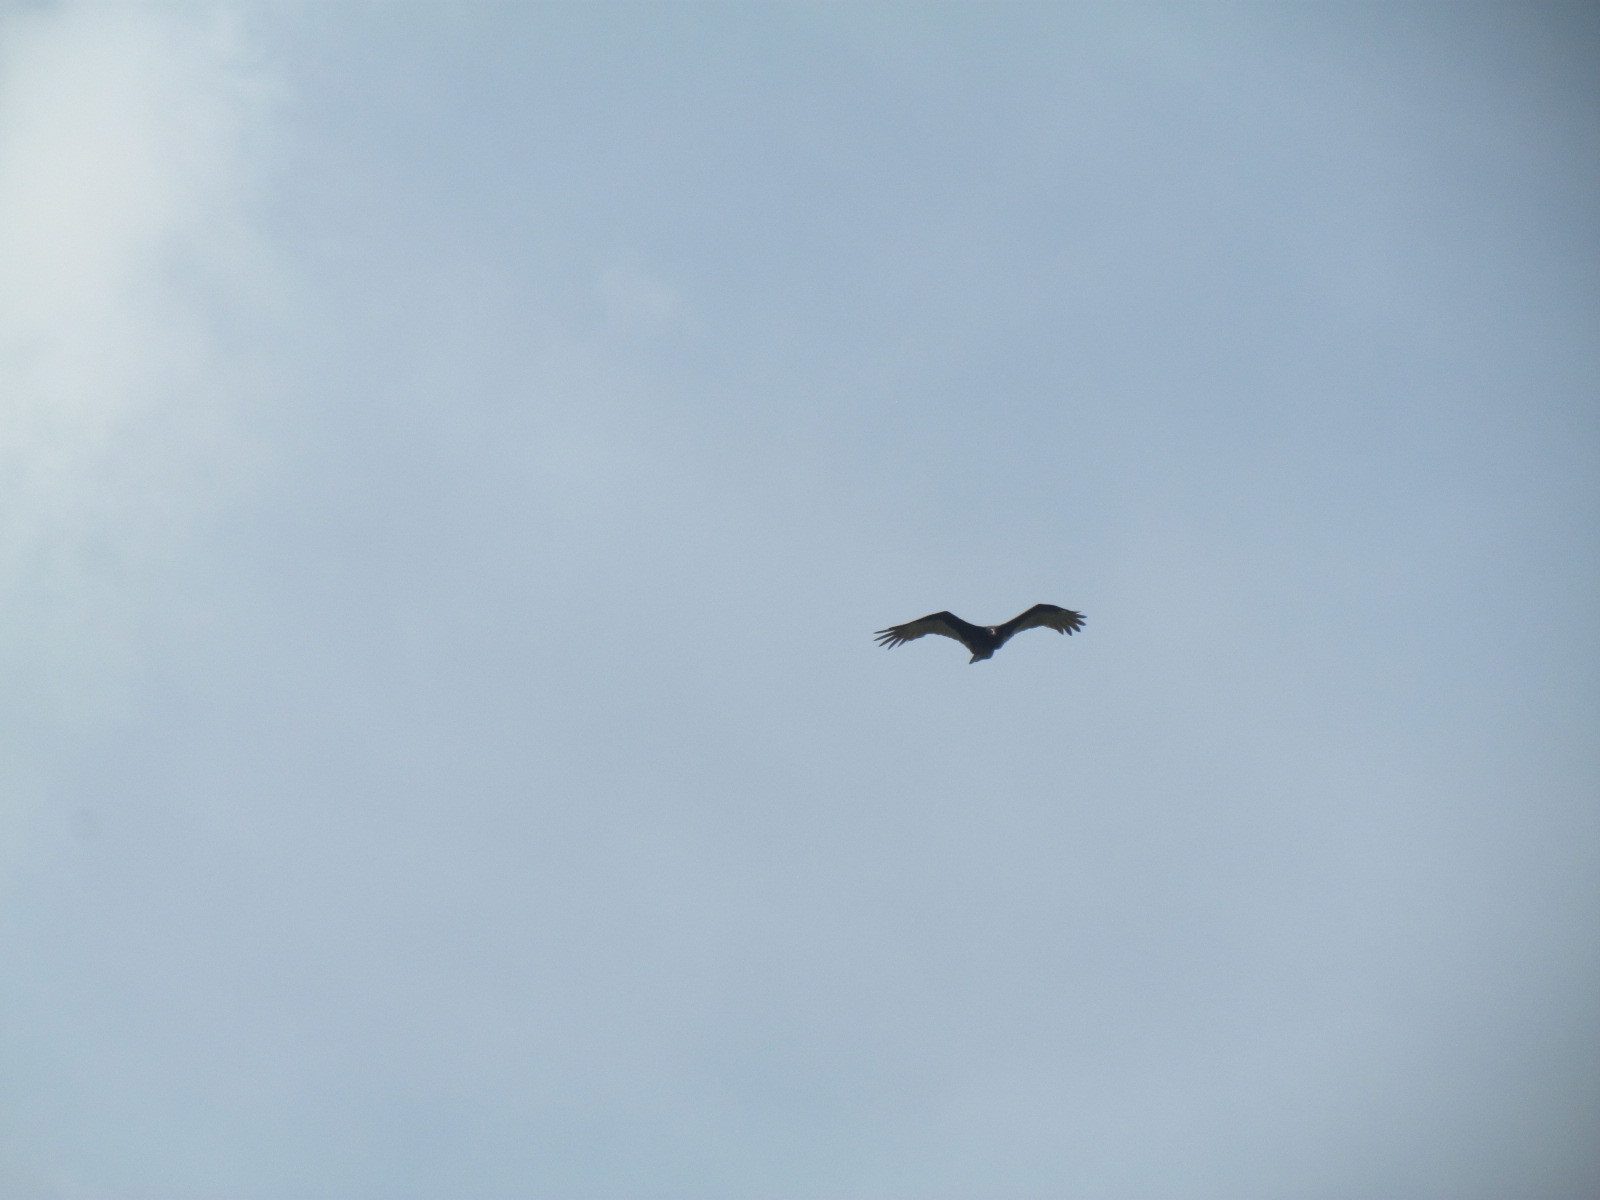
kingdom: Animalia
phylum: Chordata
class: Aves
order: Accipitriformes
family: Cathartidae
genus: Cathartes
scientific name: Cathartes aura
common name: Turkey vulture
